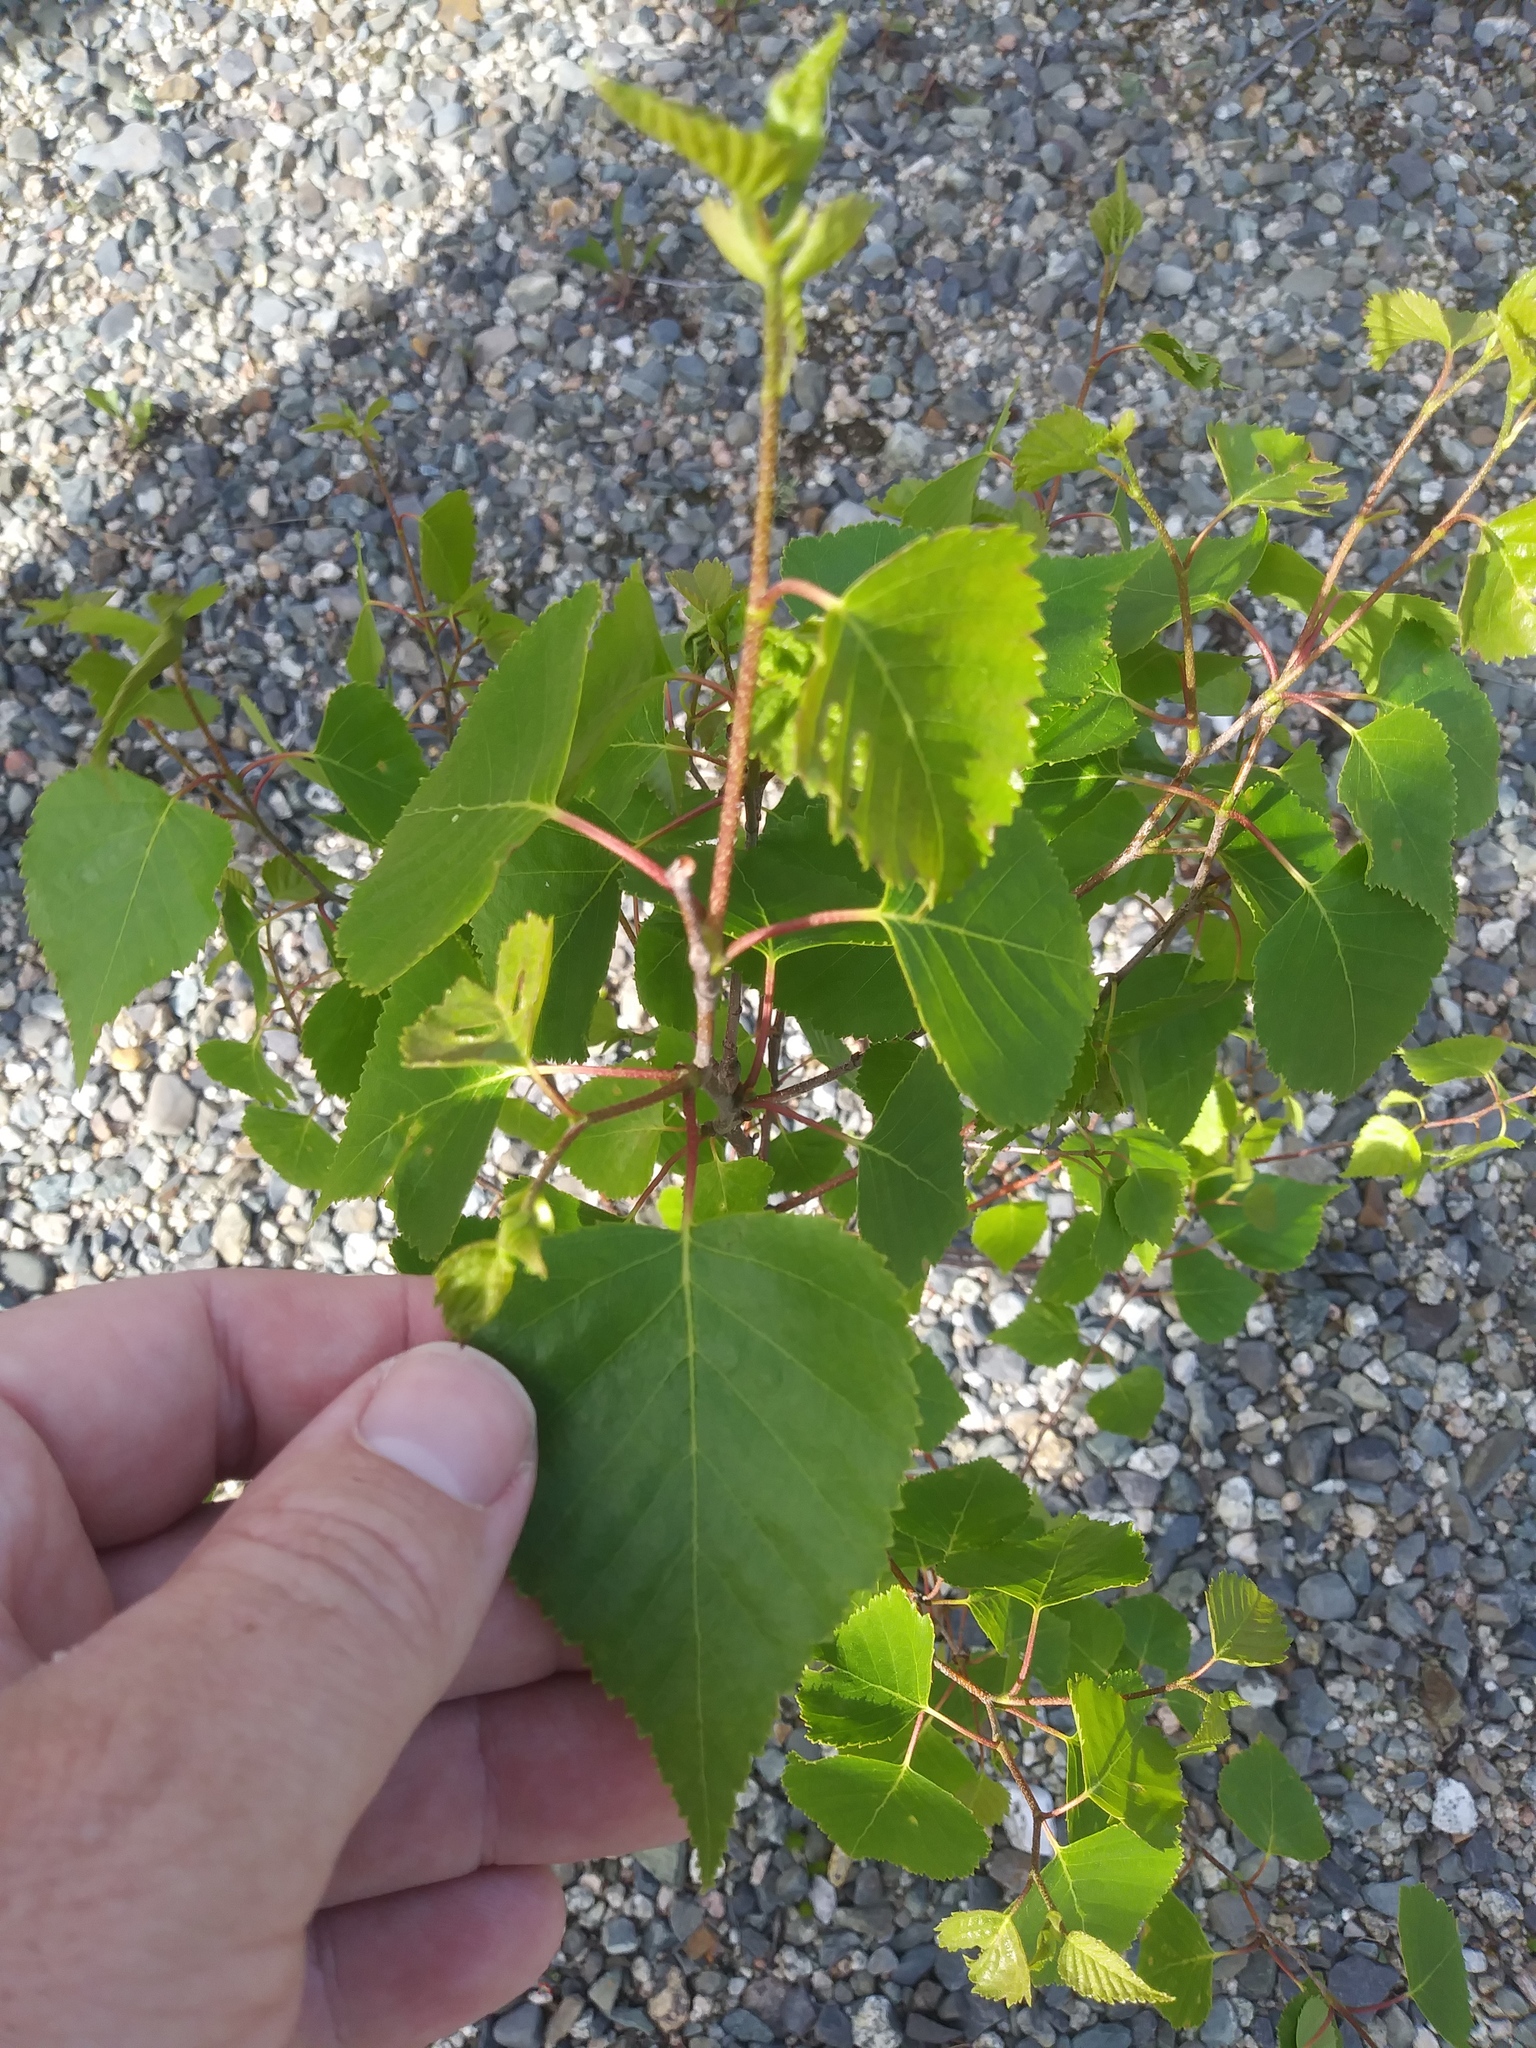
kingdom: Plantae
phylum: Tracheophyta
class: Magnoliopsida
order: Fagales
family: Betulaceae
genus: Betula
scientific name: Betula populifolia
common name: Fire birch
